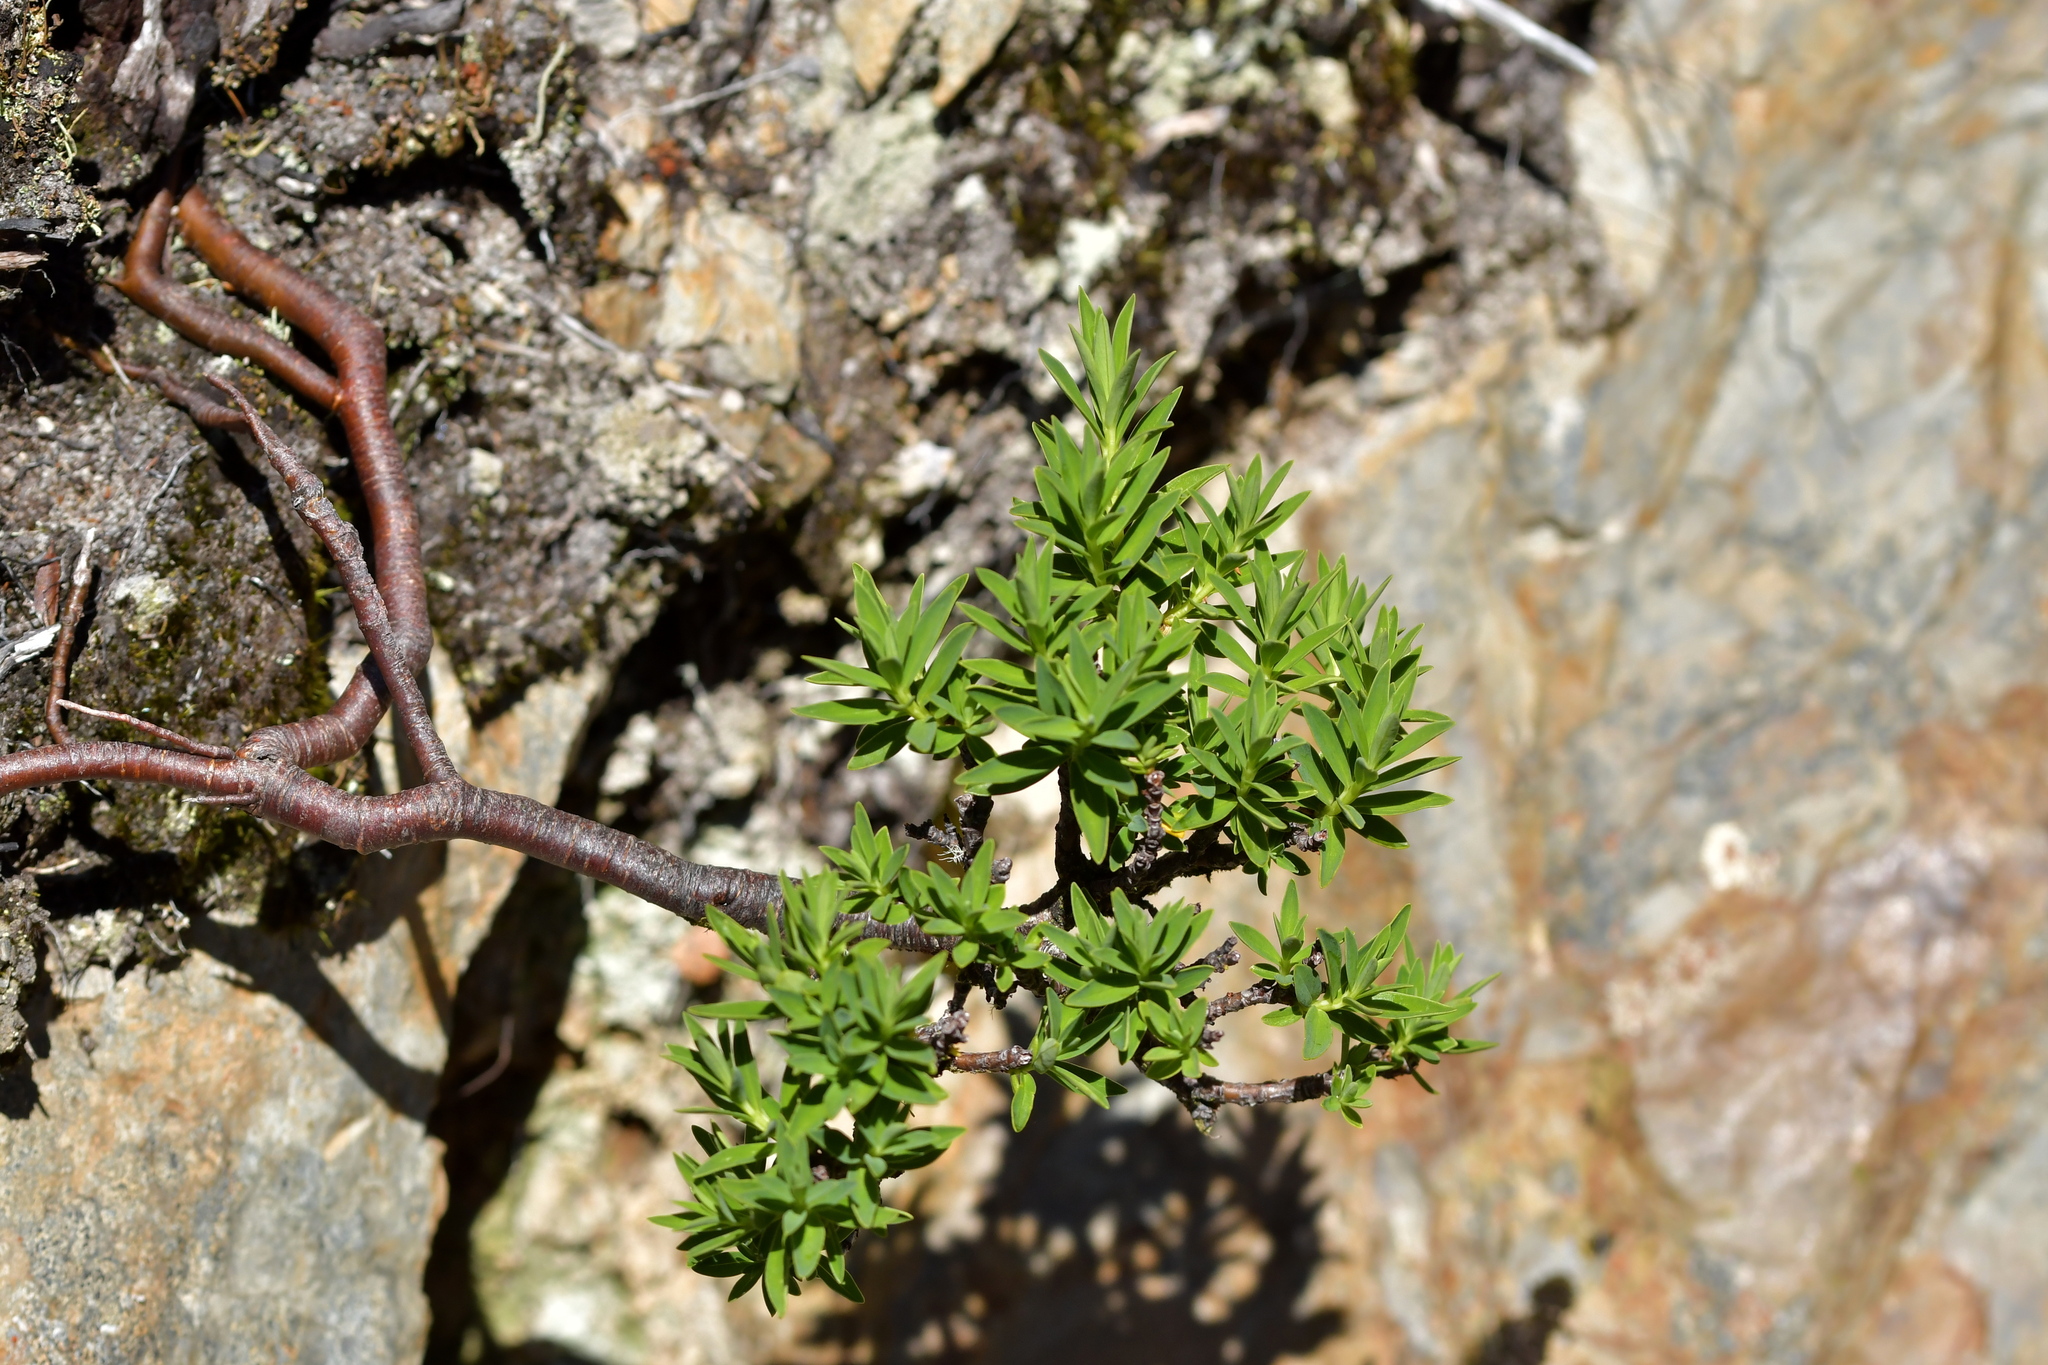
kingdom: Plantae
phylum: Tracheophyta
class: Magnoliopsida
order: Malvales
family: Thymelaeaceae
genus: Pimelea
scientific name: Pimelea gnidia
